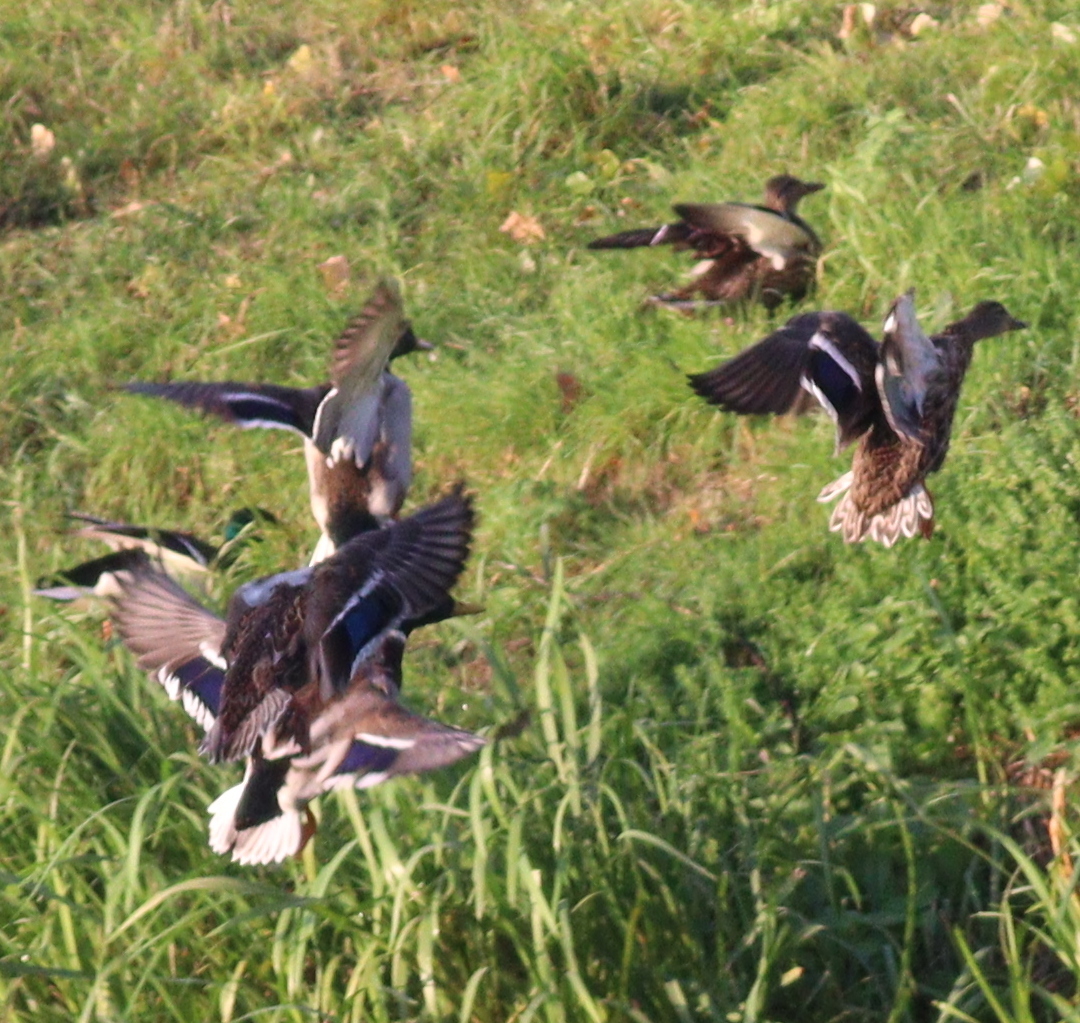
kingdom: Animalia
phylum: Chordata
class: Aves
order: Anseriformes
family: Anatidae
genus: Anas
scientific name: Anas platyrhynchos
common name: Mallard
